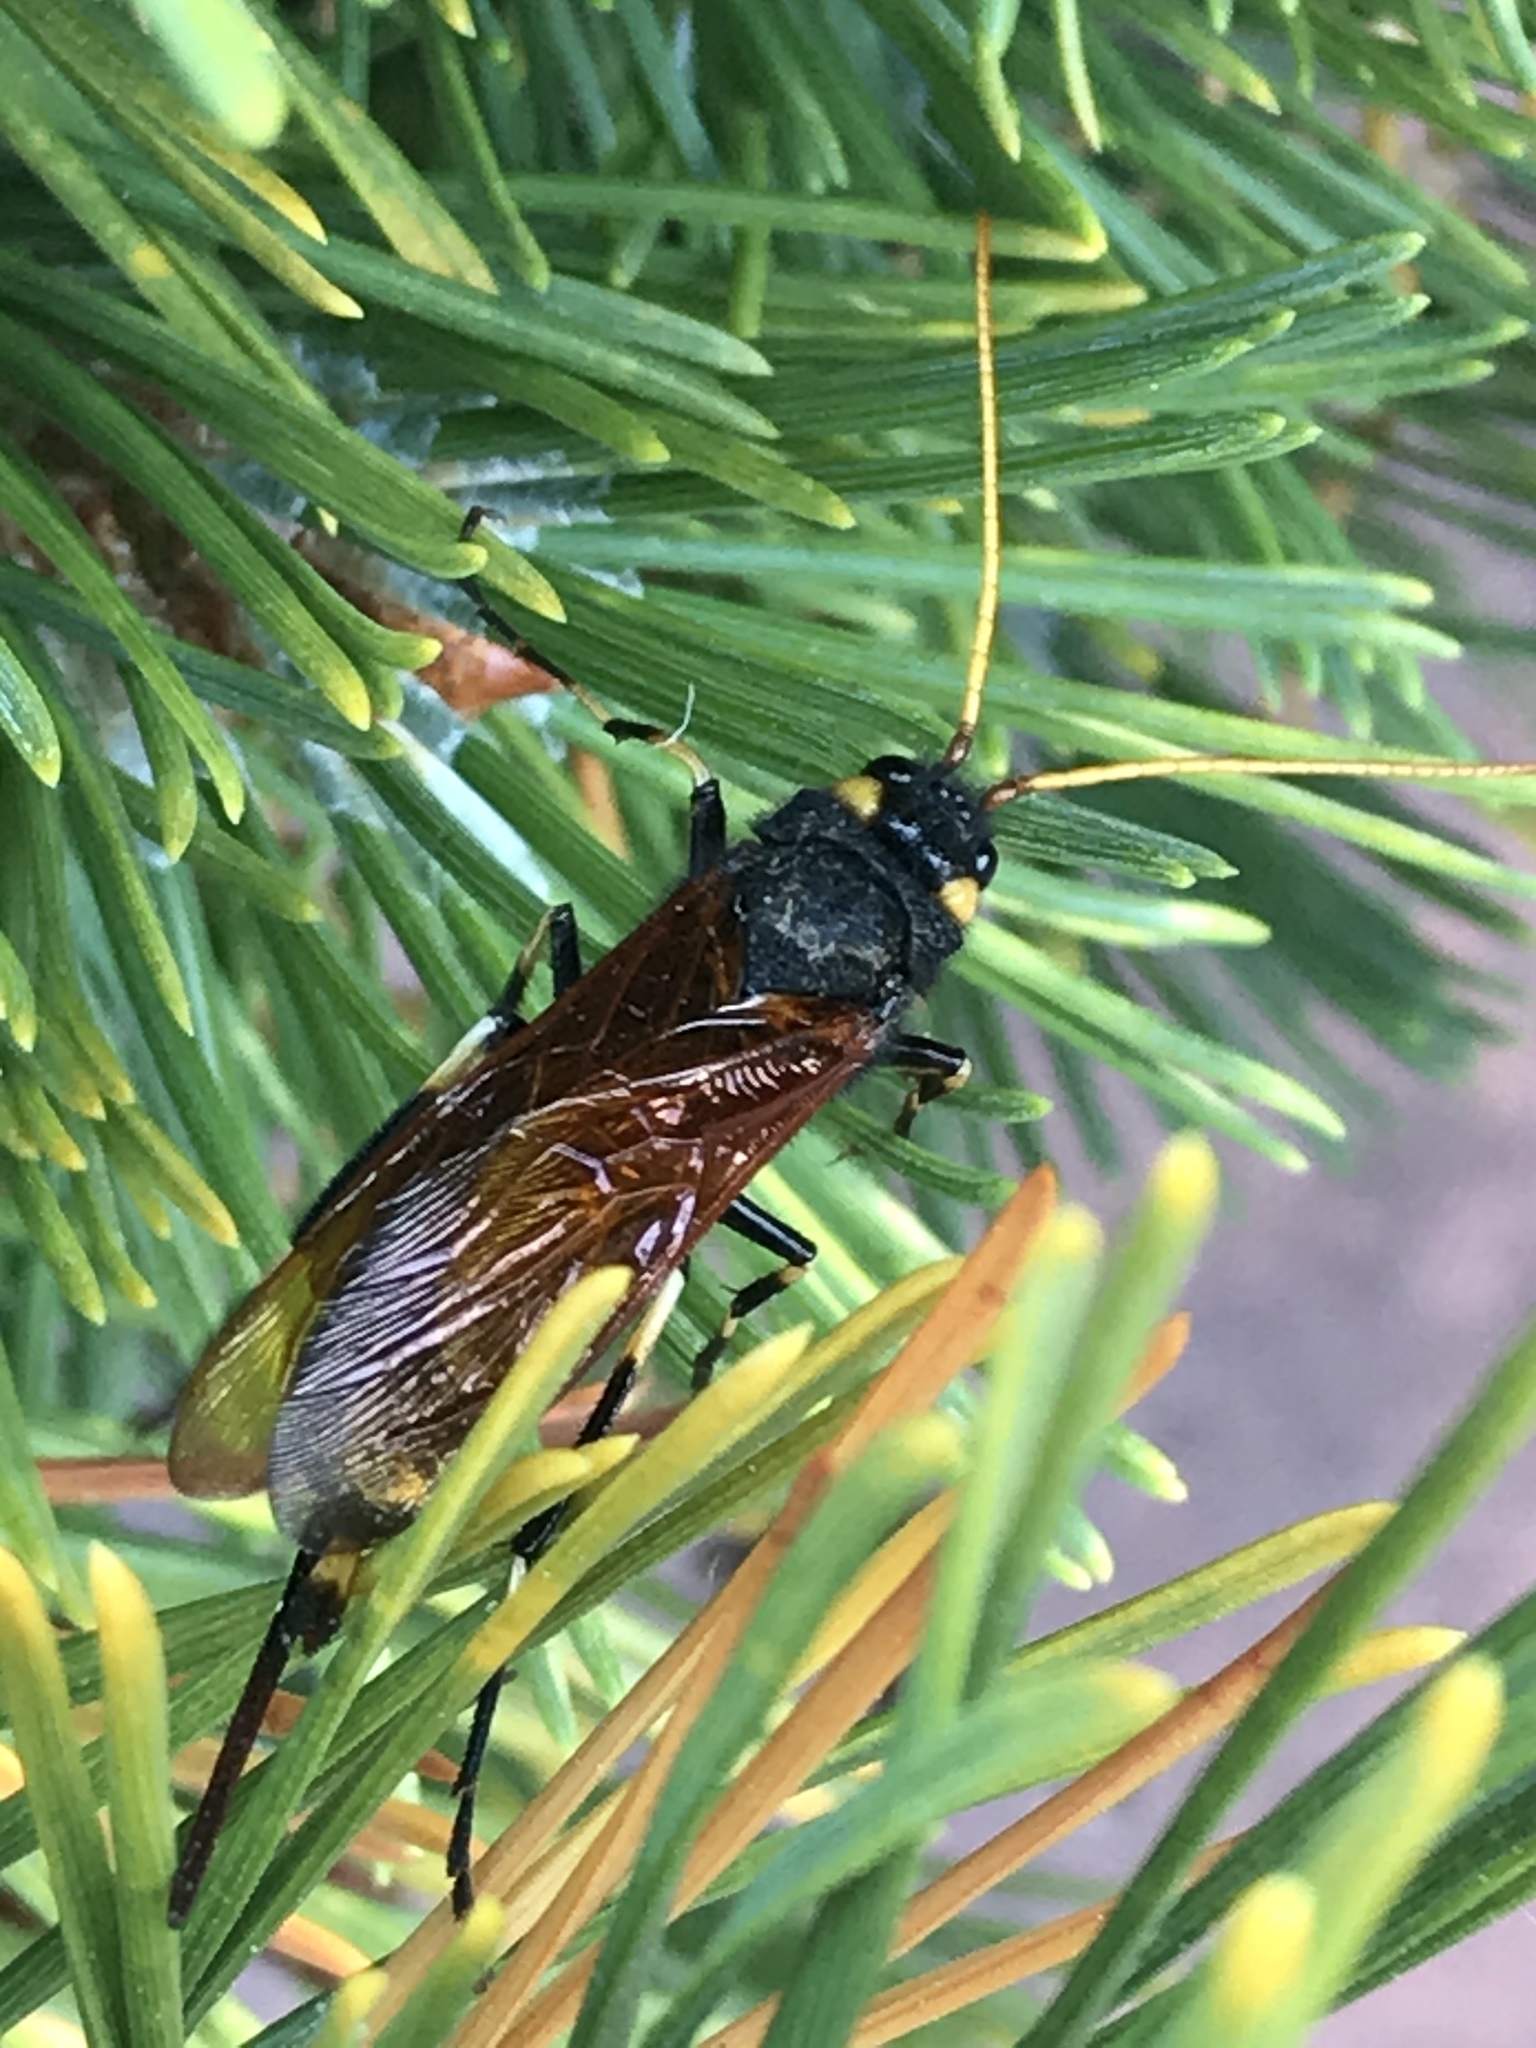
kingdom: Animalia
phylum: Arthropoda
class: Insecta
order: Hymenoptera
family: Siricidae
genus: Urocerus
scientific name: Urocerus californicus
